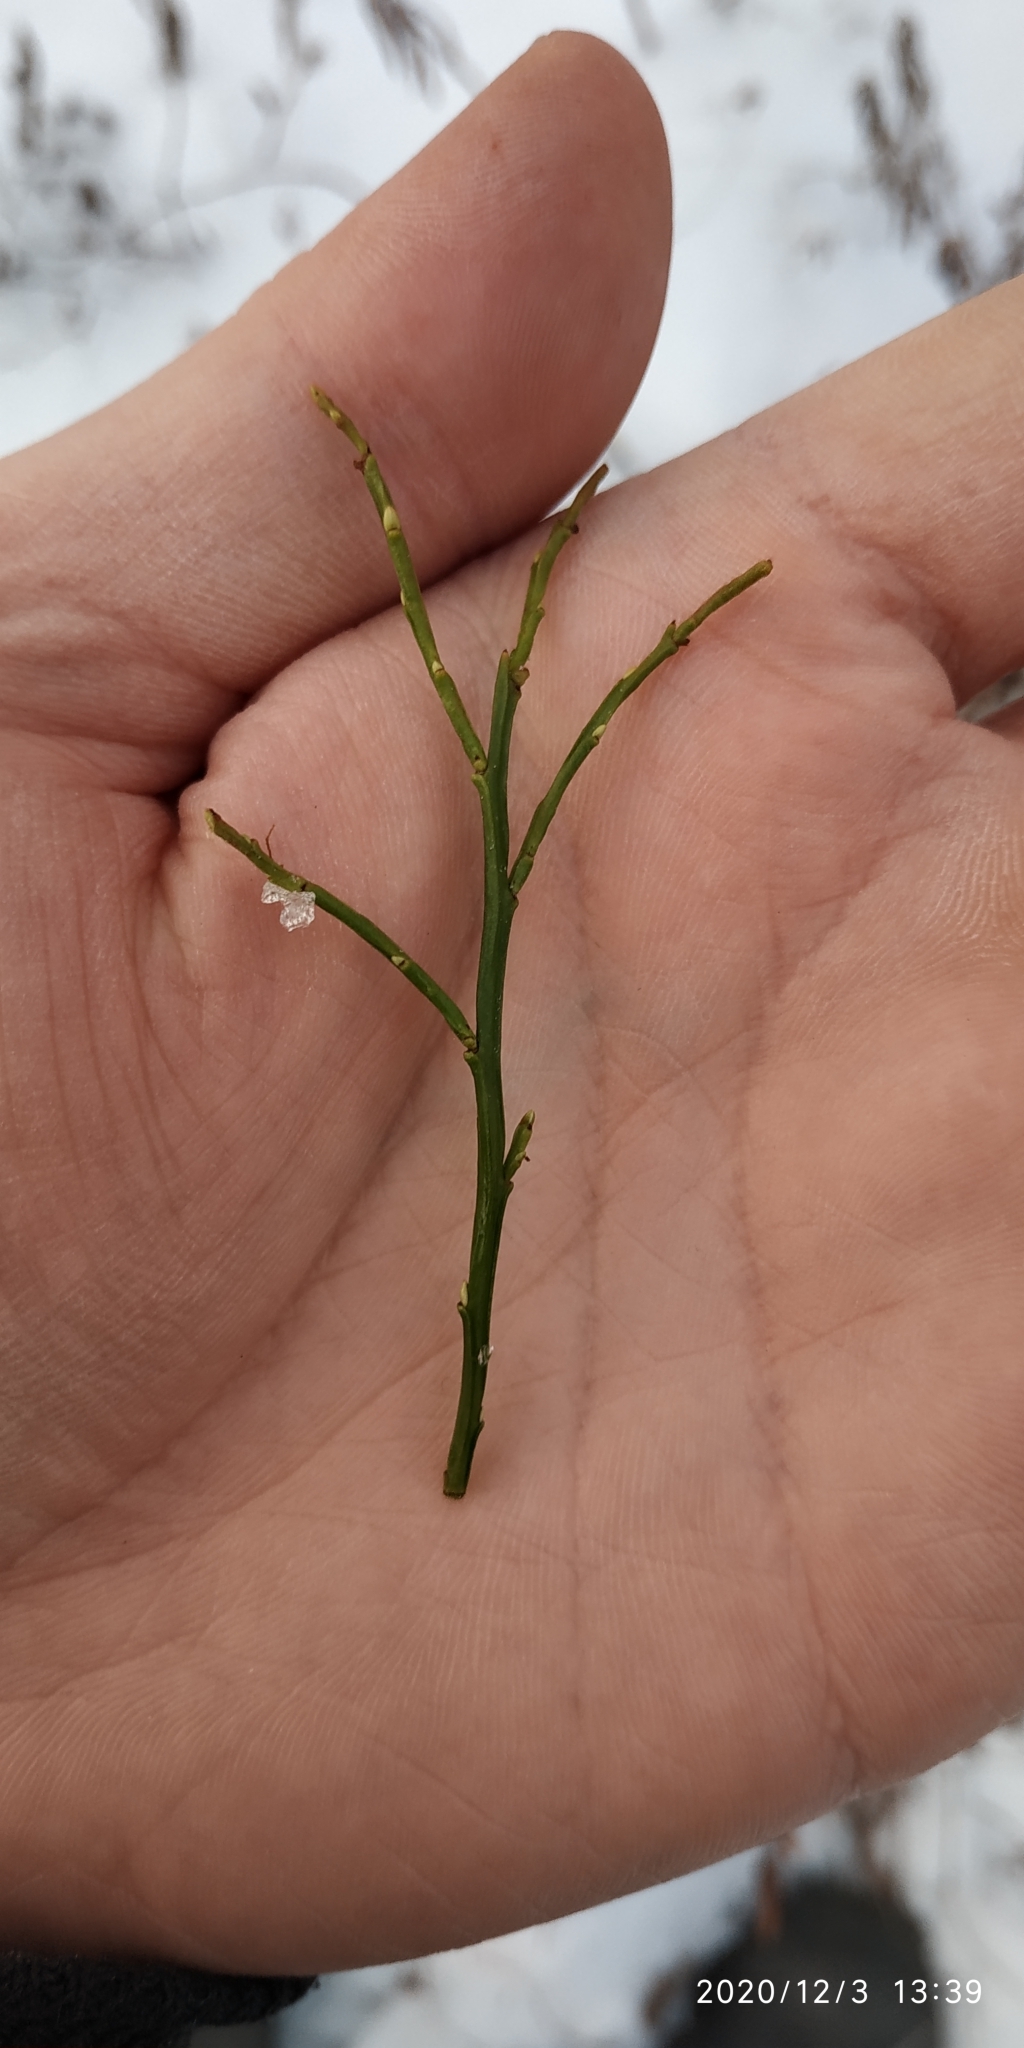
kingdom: Plantae
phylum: Tracheophyta
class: Magnoliopsida
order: Ericales
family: Ericaceae
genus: Vaccinium
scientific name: Vaccinium myrtillus
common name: Bilberry
